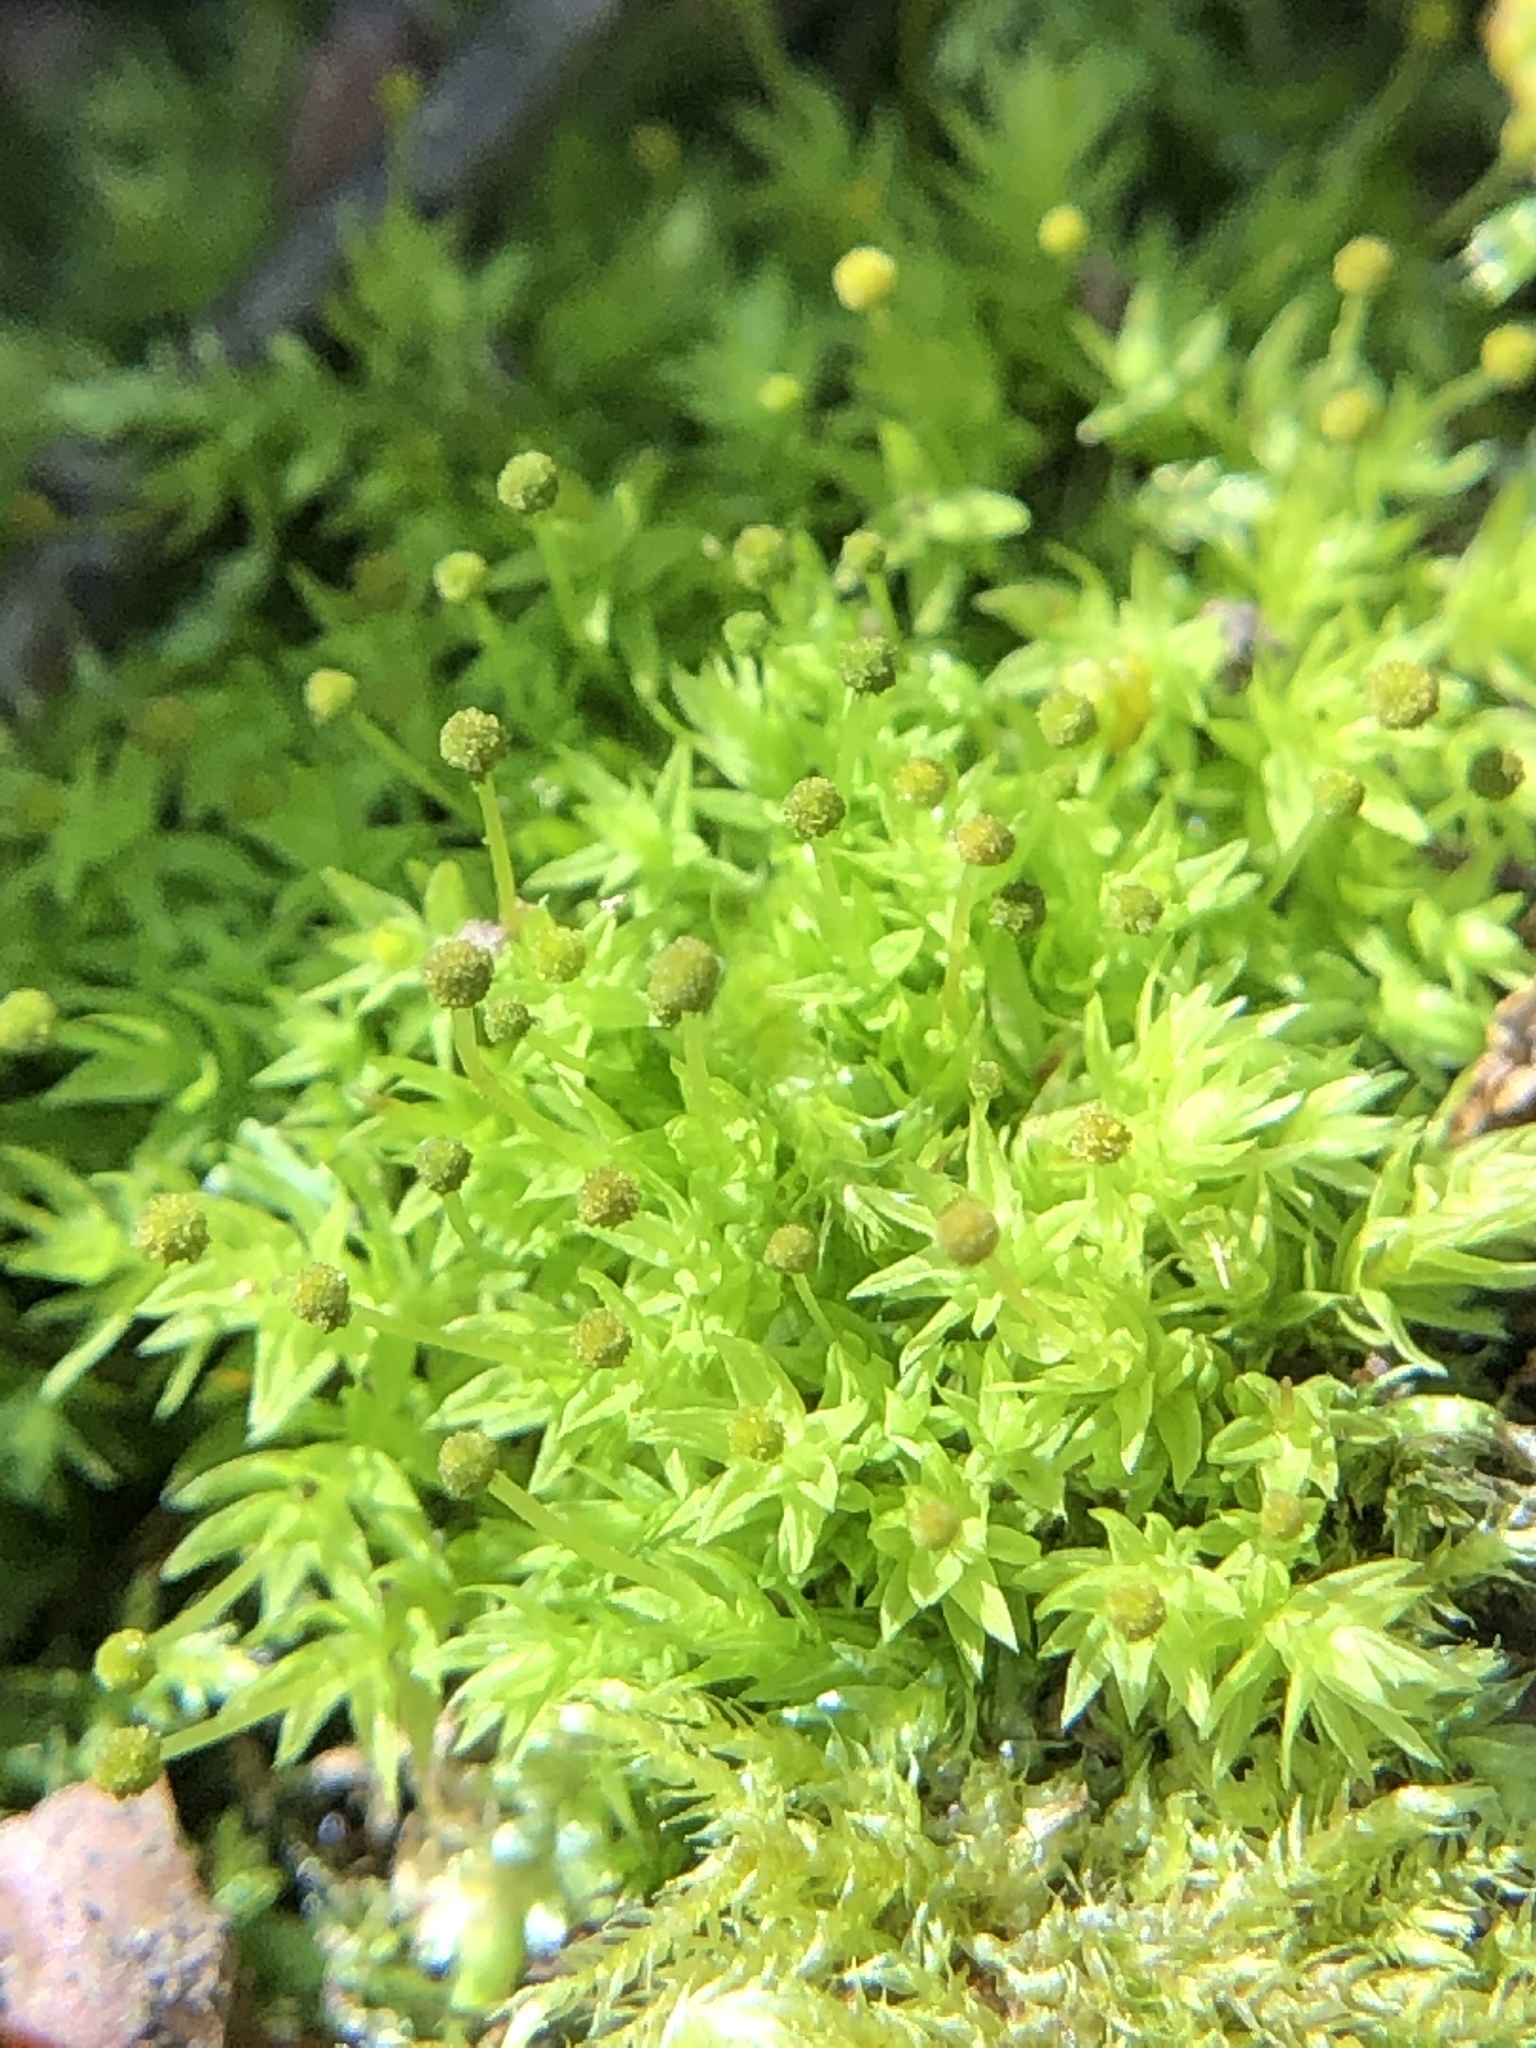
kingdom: Plantae
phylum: Bryophyta
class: Bryopsida
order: Aulacomniales
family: Aulacomniaceae
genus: Aulacomnium
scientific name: Aulacomnium androgynum
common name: Little groove moss
